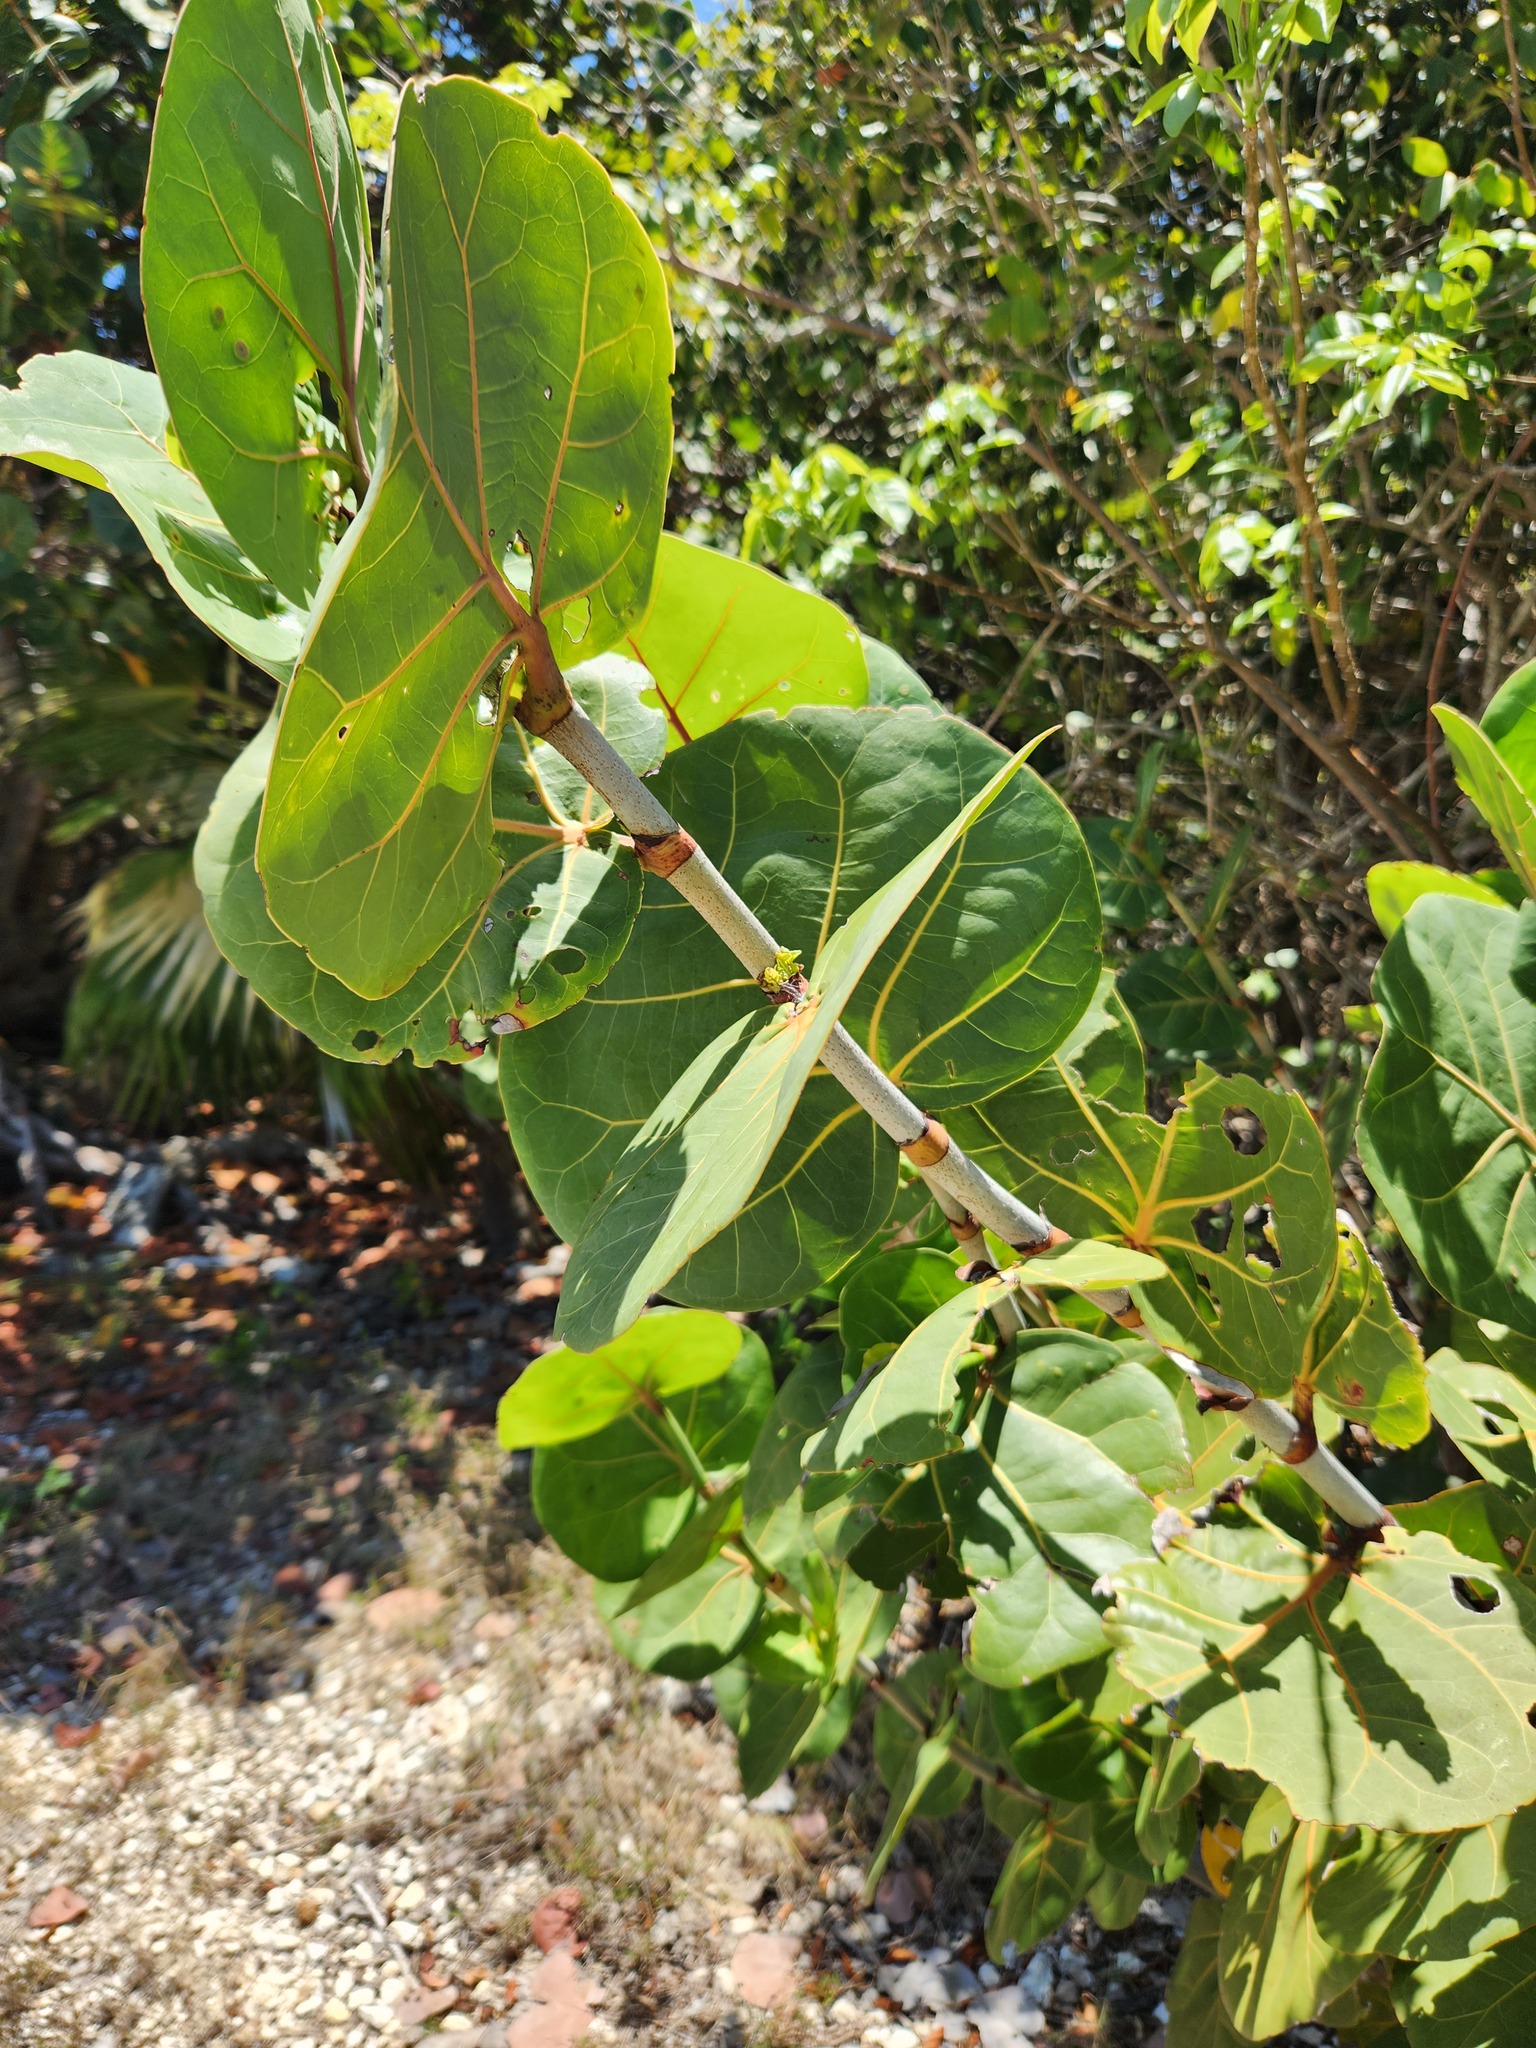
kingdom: Plantae
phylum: Tracheophyta
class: Magnoliopsida
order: Caryophyllales
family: Polygonaceae
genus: Coccoloba
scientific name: Coccoloba uvifera
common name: Seagrape
